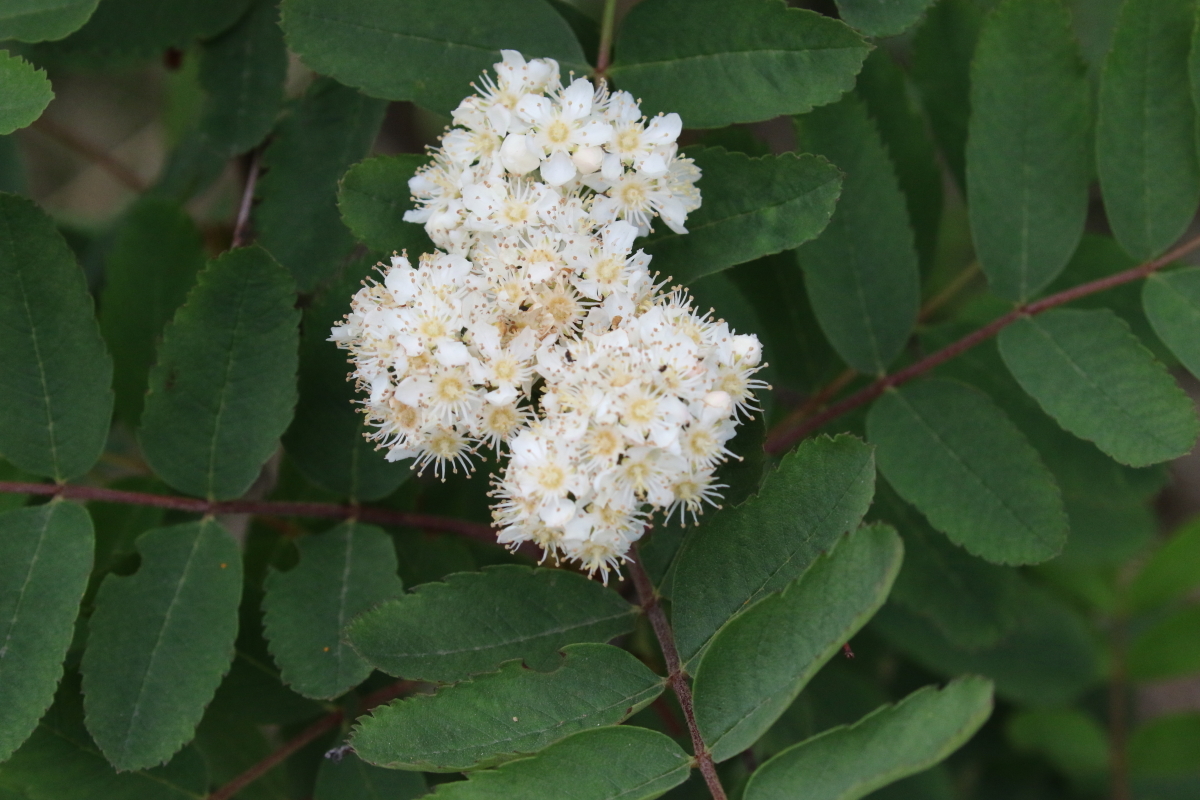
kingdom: Plantae
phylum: Tracheophyta
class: Magnoliopsida
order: Rosales
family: Rosaceae
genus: Sorbus
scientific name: Sorbus sitchensis
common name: Sitka mountain-ash
